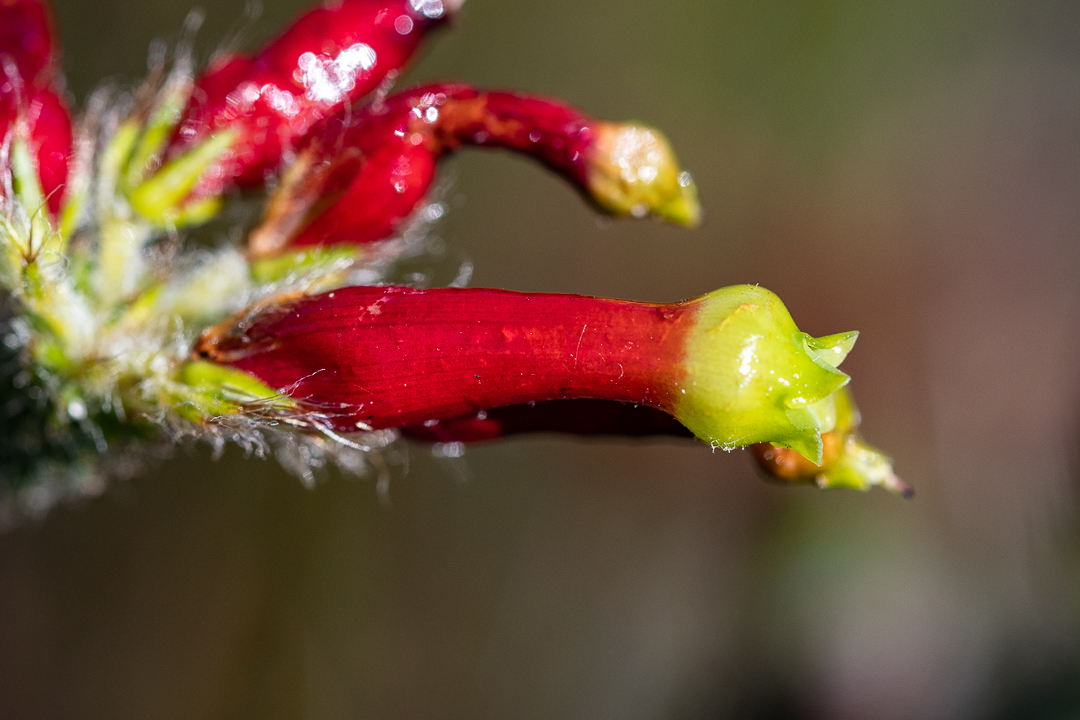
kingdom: Plantae
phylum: Tracheophyta
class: Magnoliopsida
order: Ericales
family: Ericaceae
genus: Erica
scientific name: Erica massonii
